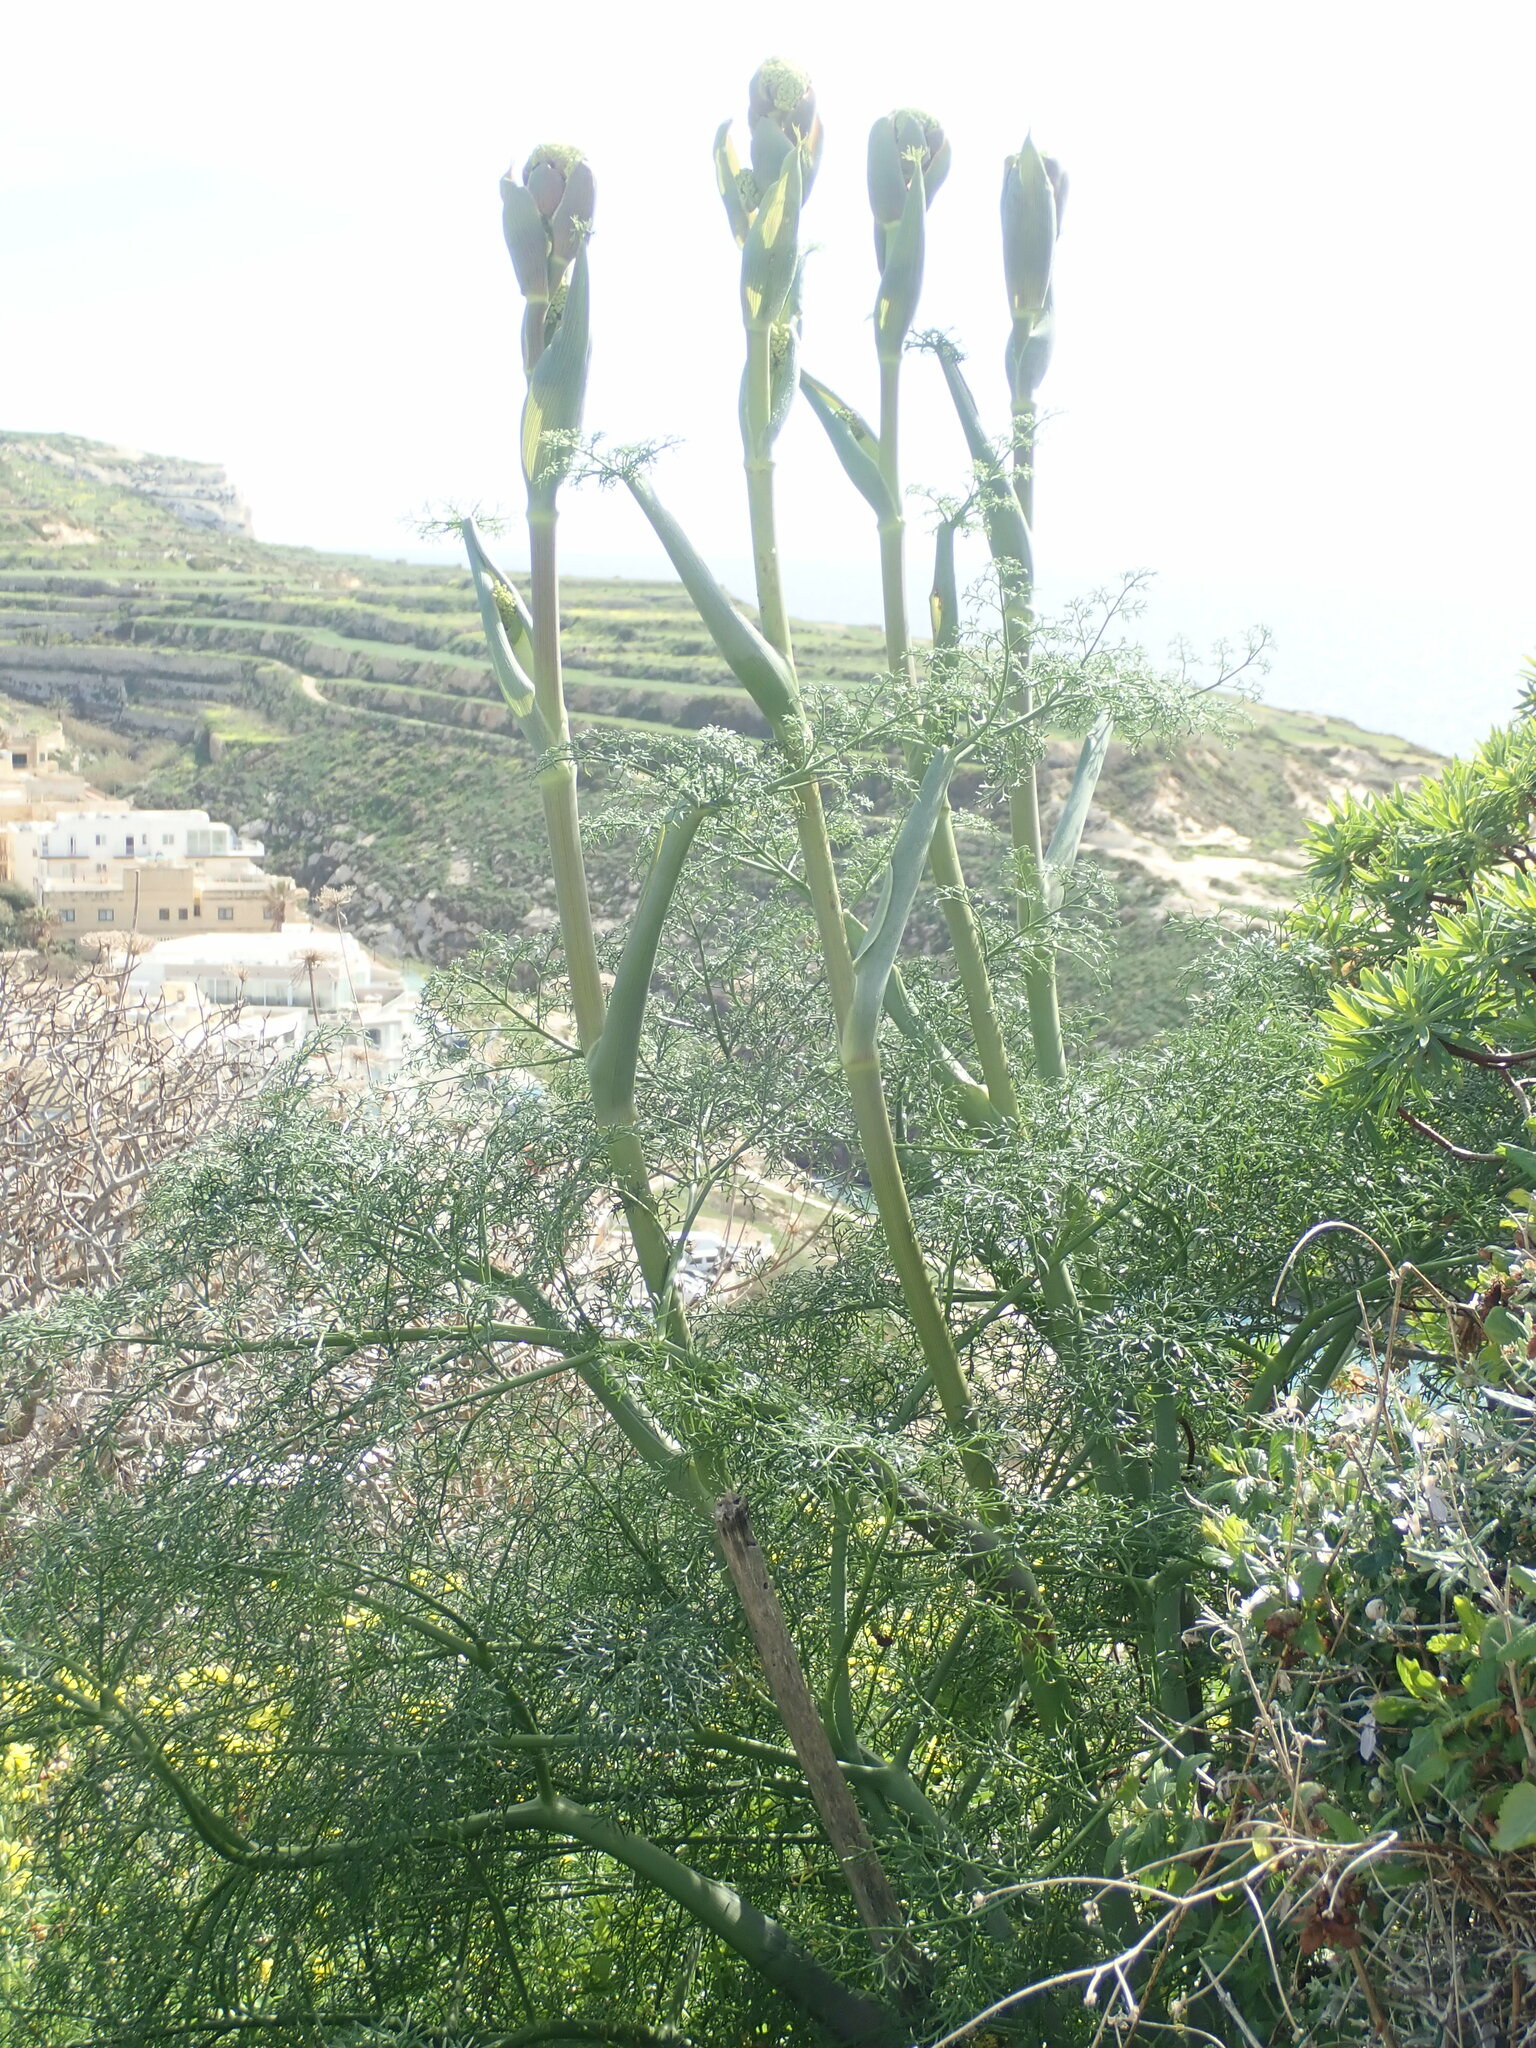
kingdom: Plantae
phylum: Tracheophyta
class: Magnoliopsida
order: Apiales
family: Apiaceae
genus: Ferula
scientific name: Ferula melitensis
